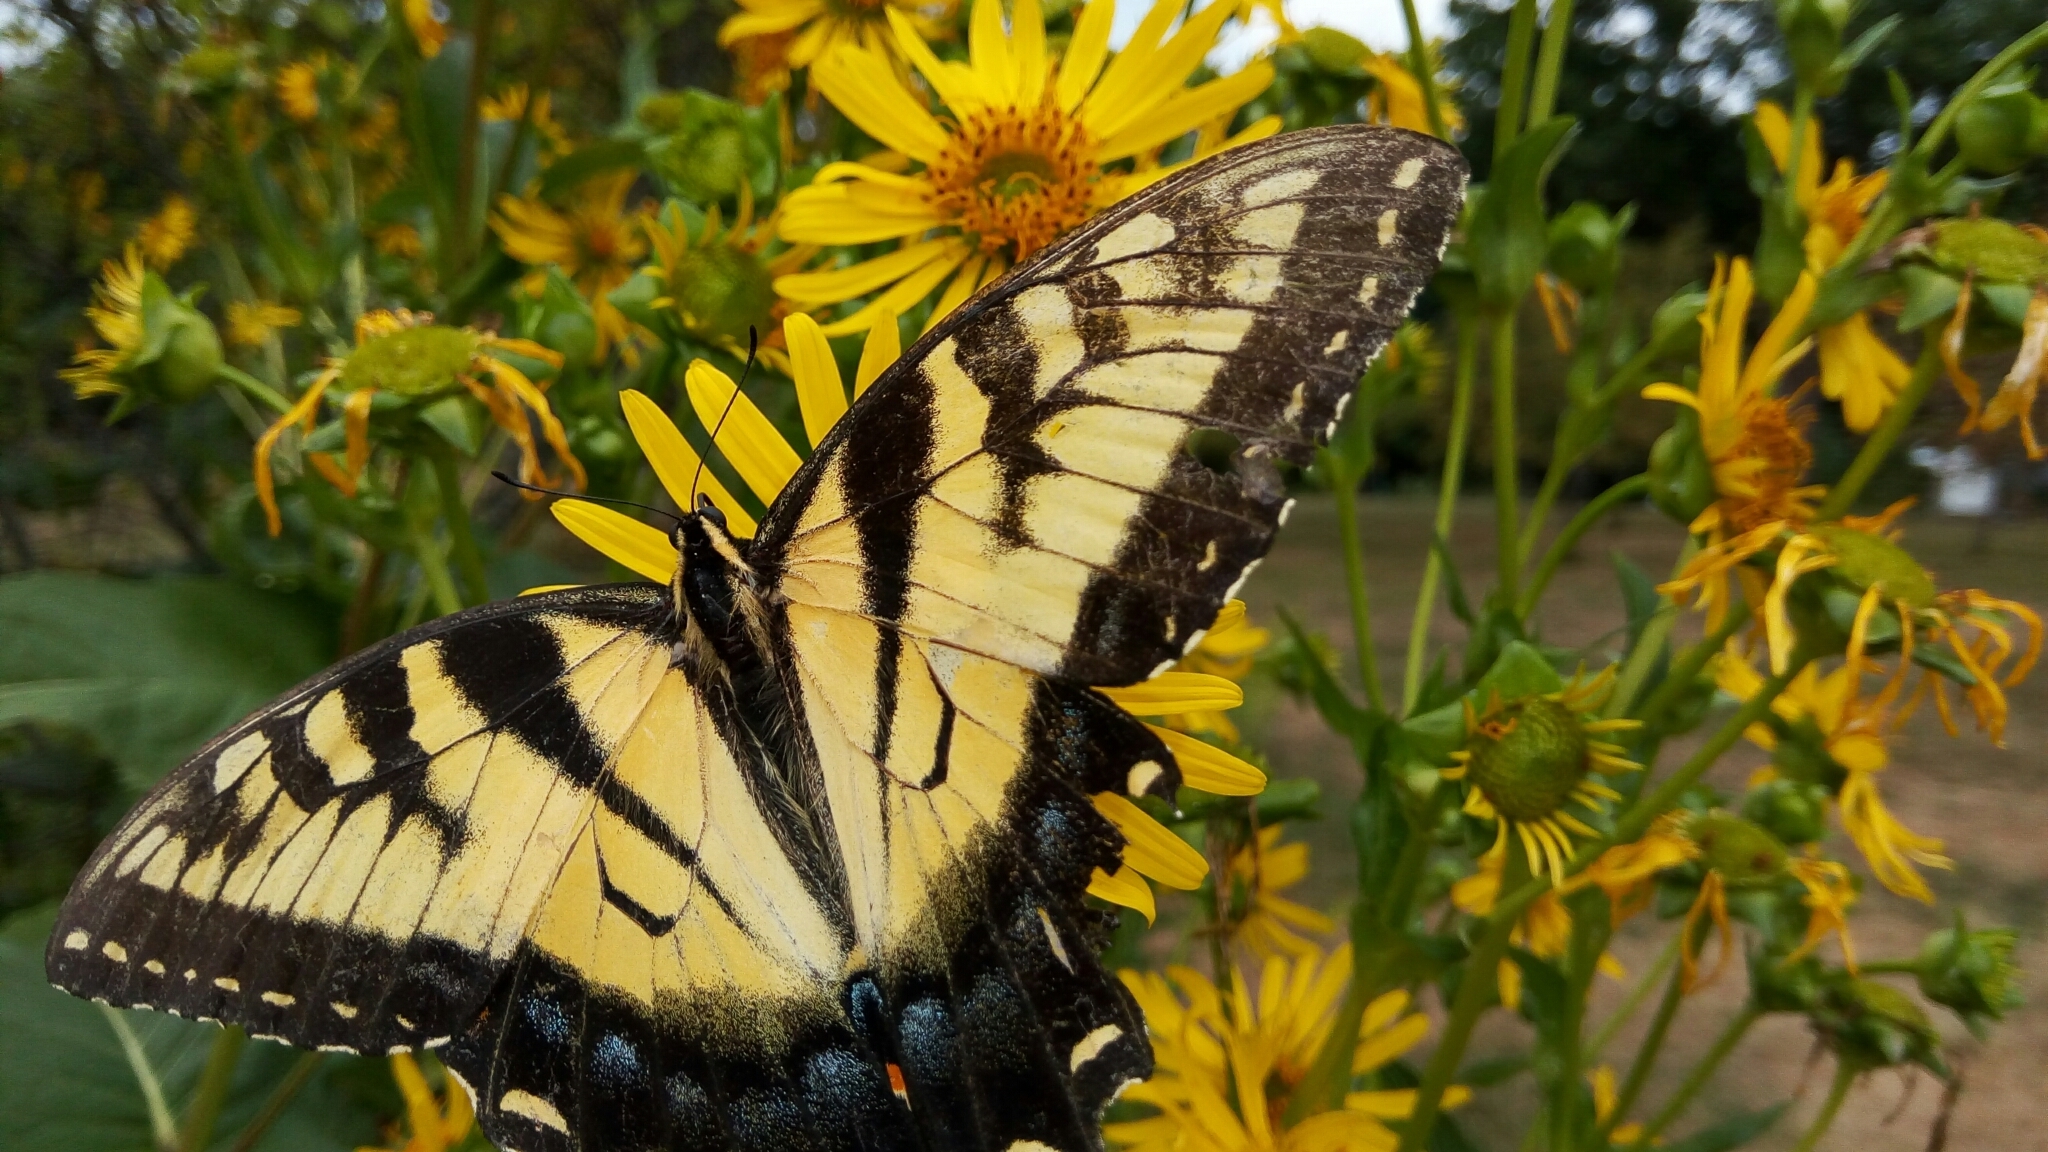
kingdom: Animalia
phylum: Arthropoda
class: Insecta
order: Lepidoptera
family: Papilionidae
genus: Papilio
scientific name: Papilio glaucus
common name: Tiger swallowtail
